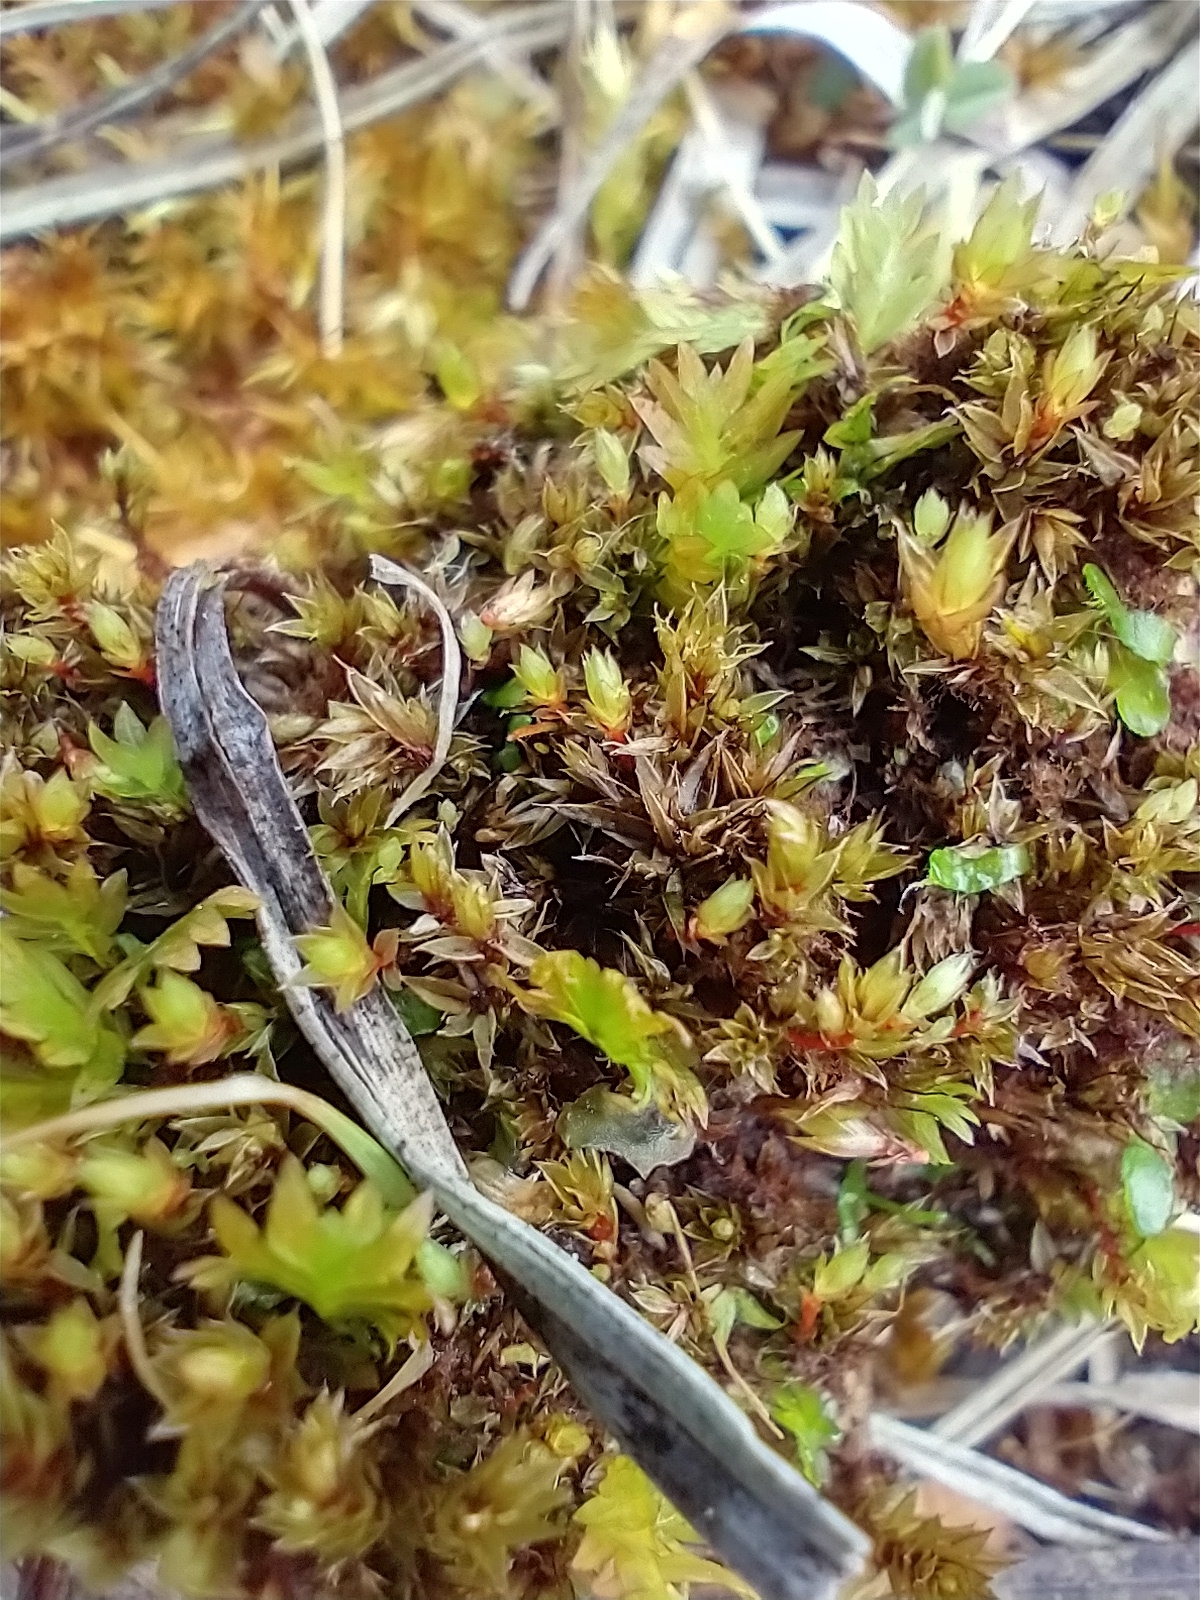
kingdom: Plantae
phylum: Bryophyta
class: Bryopsida
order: Bryales
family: Bryaceae
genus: Ptychostomum
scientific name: Ptychostomum pseudotriquetrum
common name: Long-leaved thread moss
